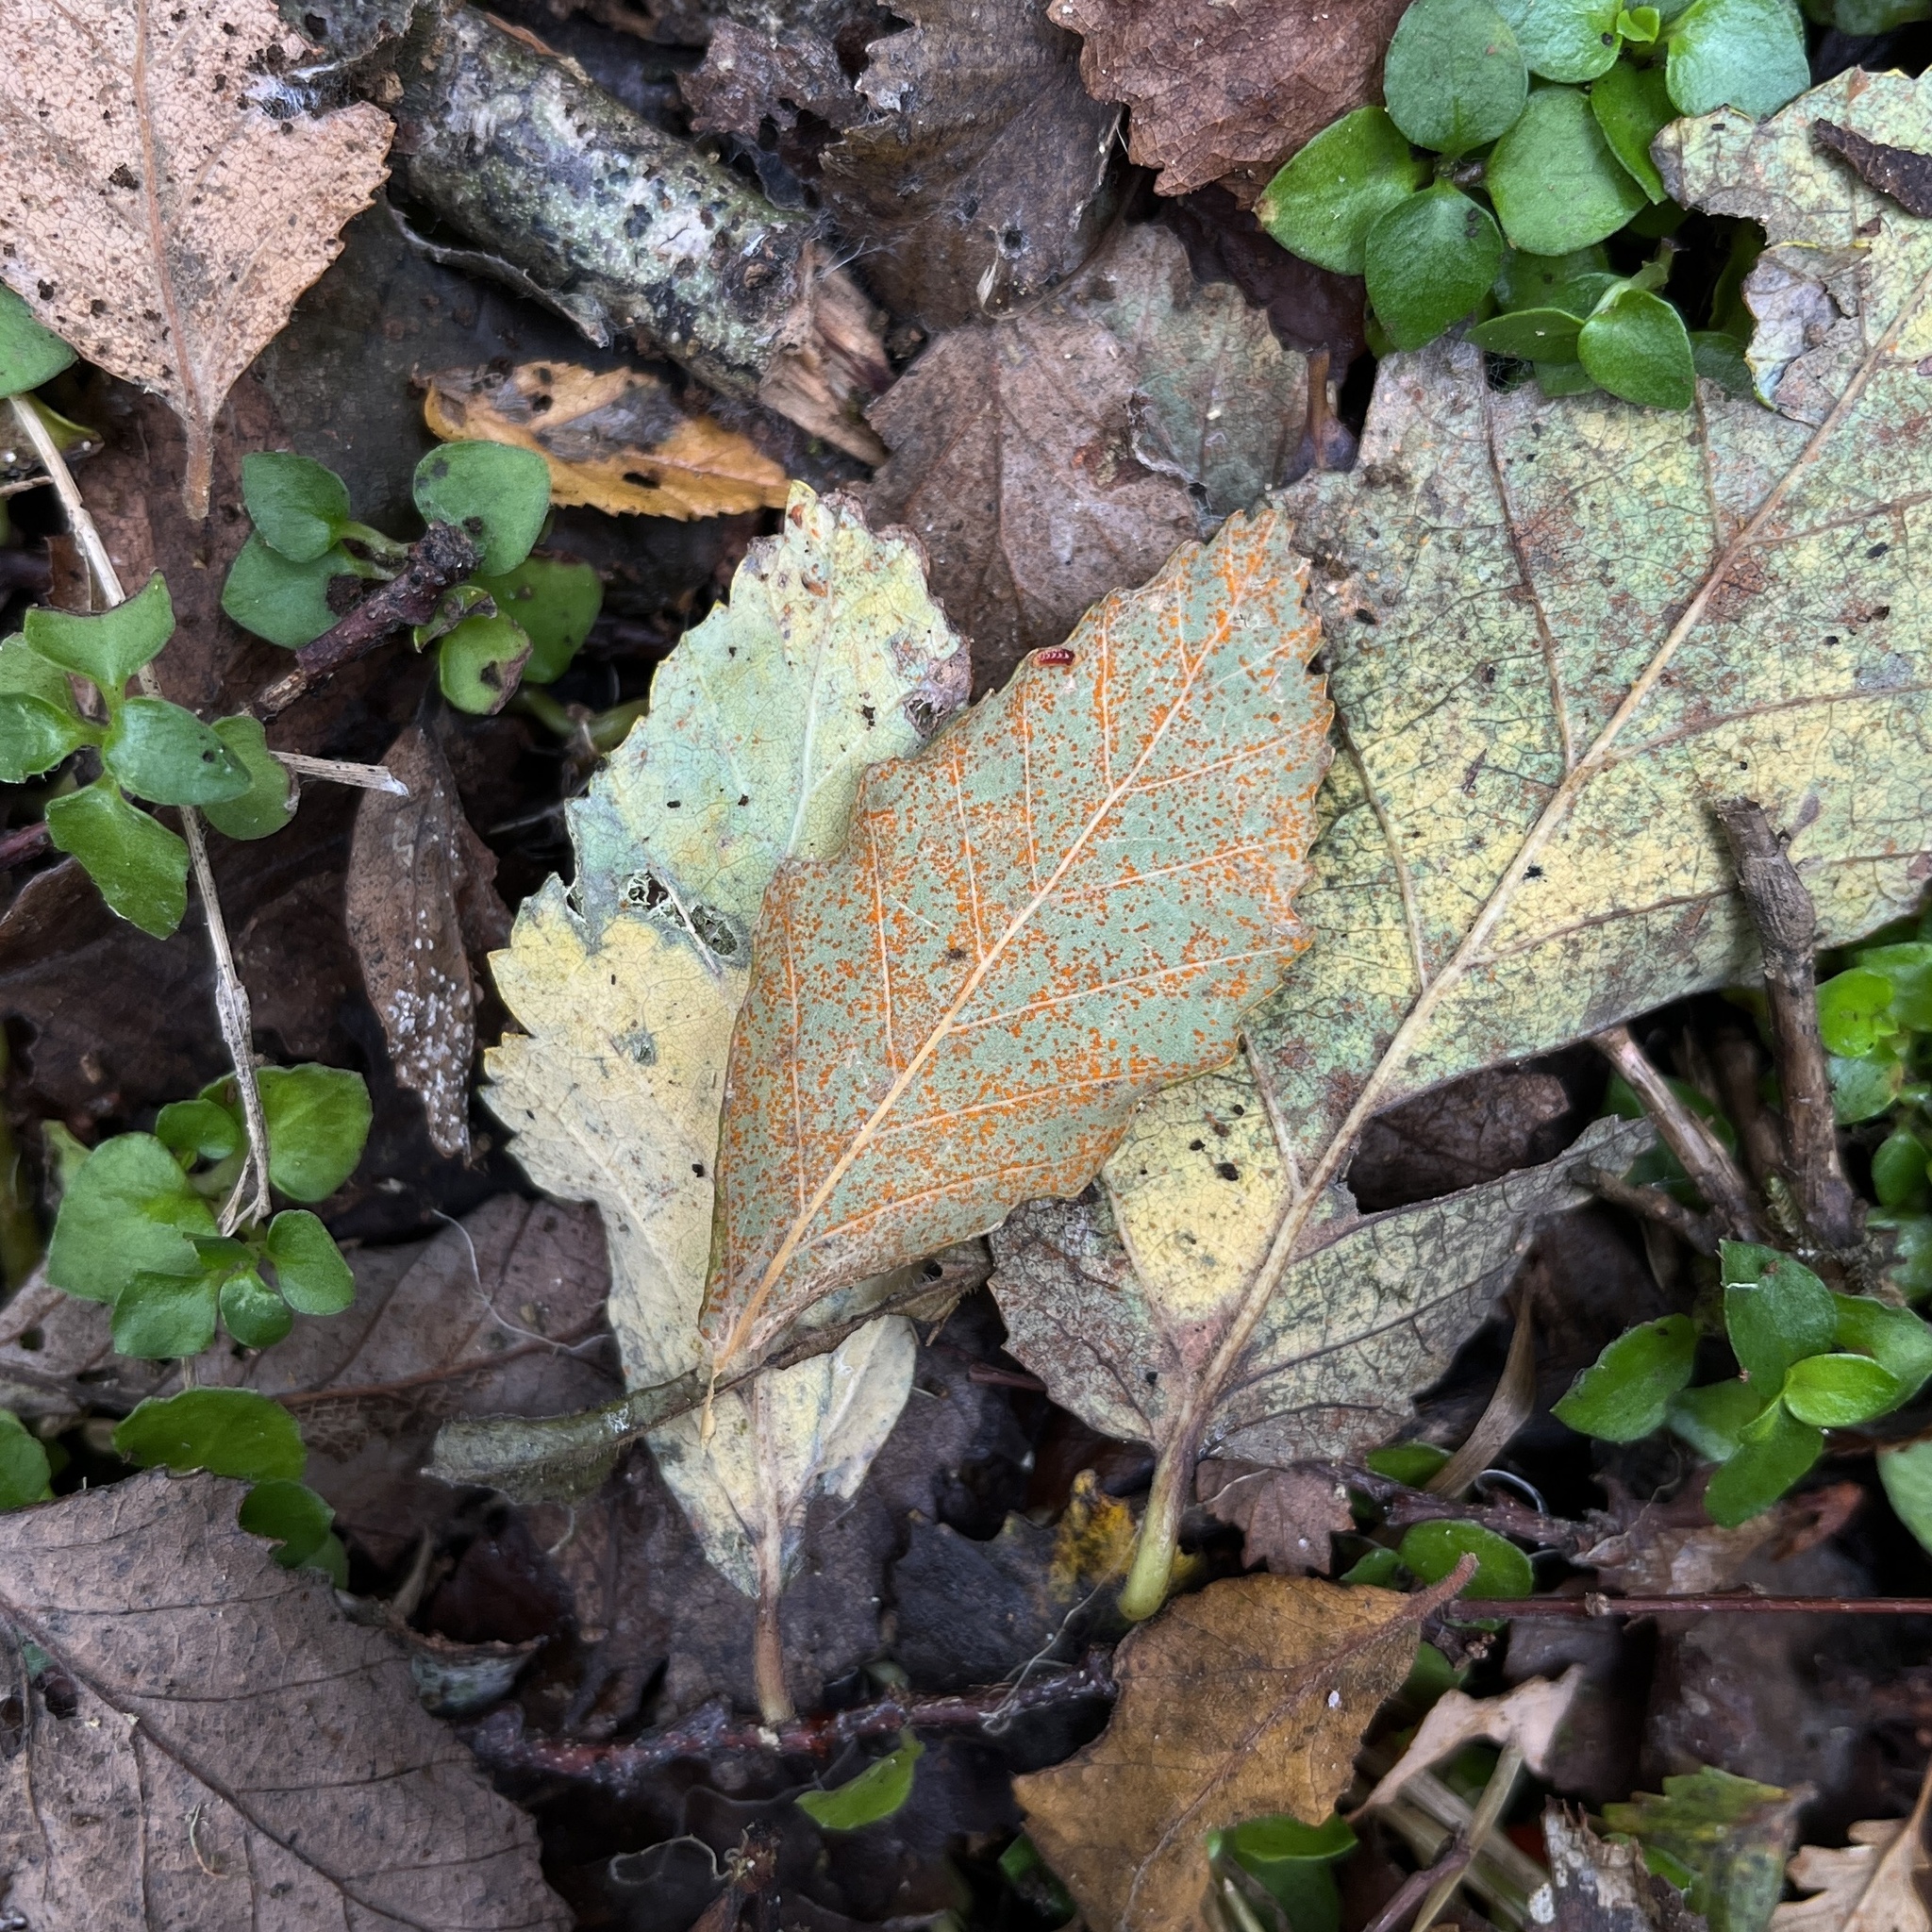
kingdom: Fungi
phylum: Basidiomycota
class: Pucciniomycetes
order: Pucciniales
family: Mikronegeriaceae
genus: Mikronegeria
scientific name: Mikronegeria fagi
